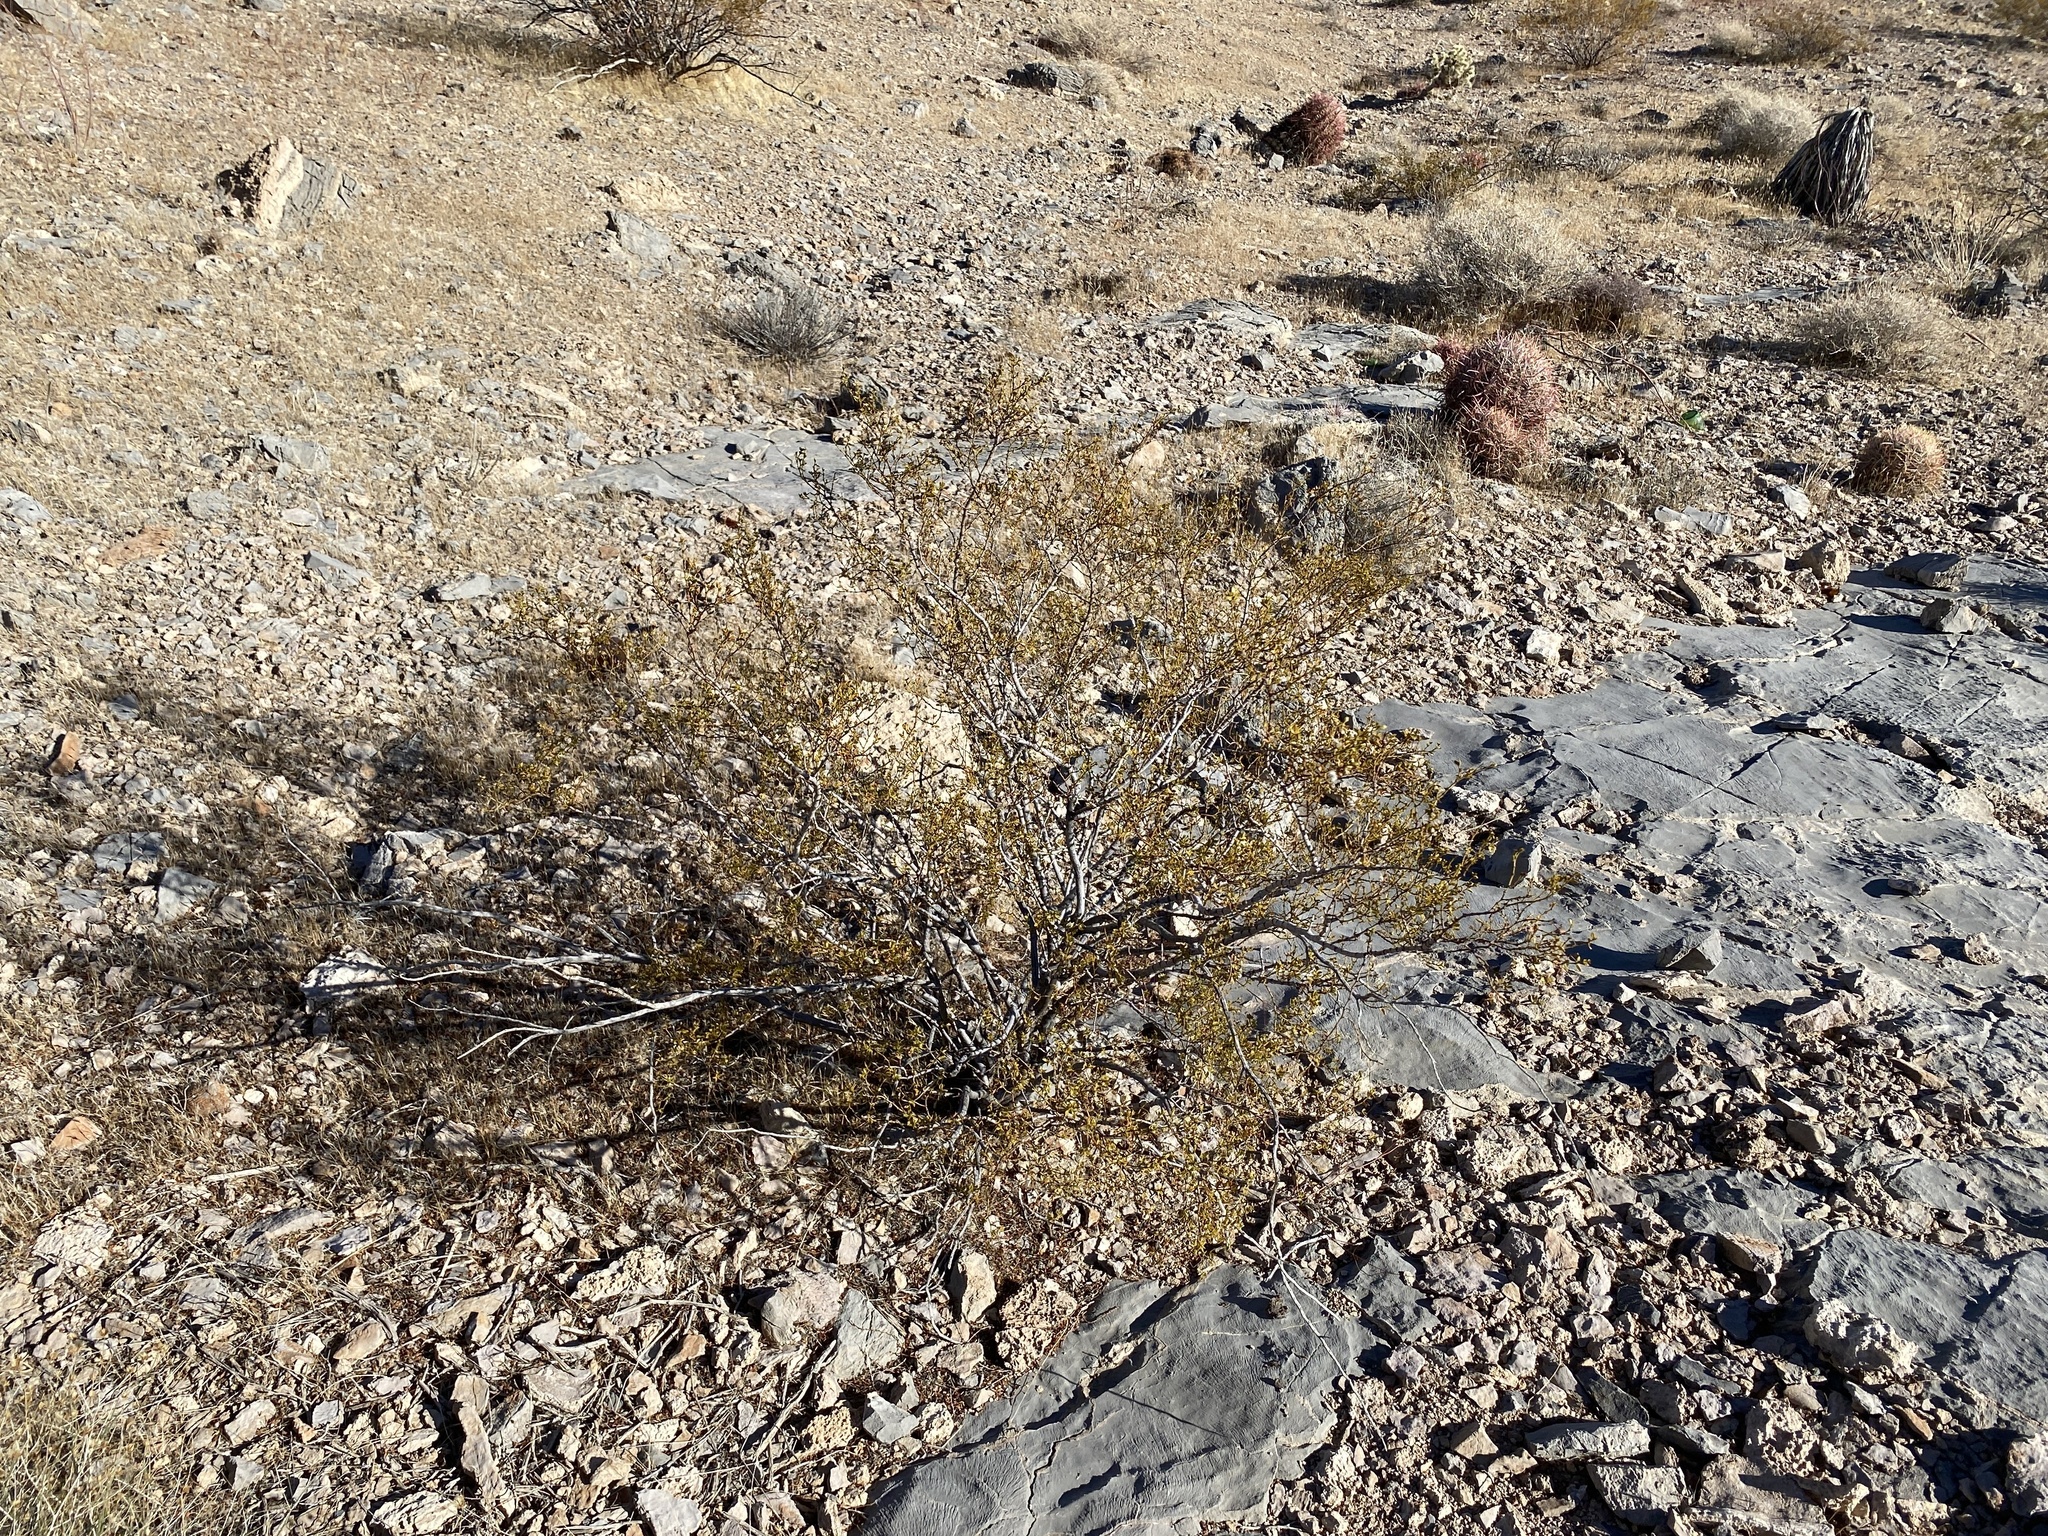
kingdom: Plantae
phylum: Tracheophyta
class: Magnoliopsida
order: Zygophyllales
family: Zygophyllaceae
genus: Larrea
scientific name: Larrea tridentata
